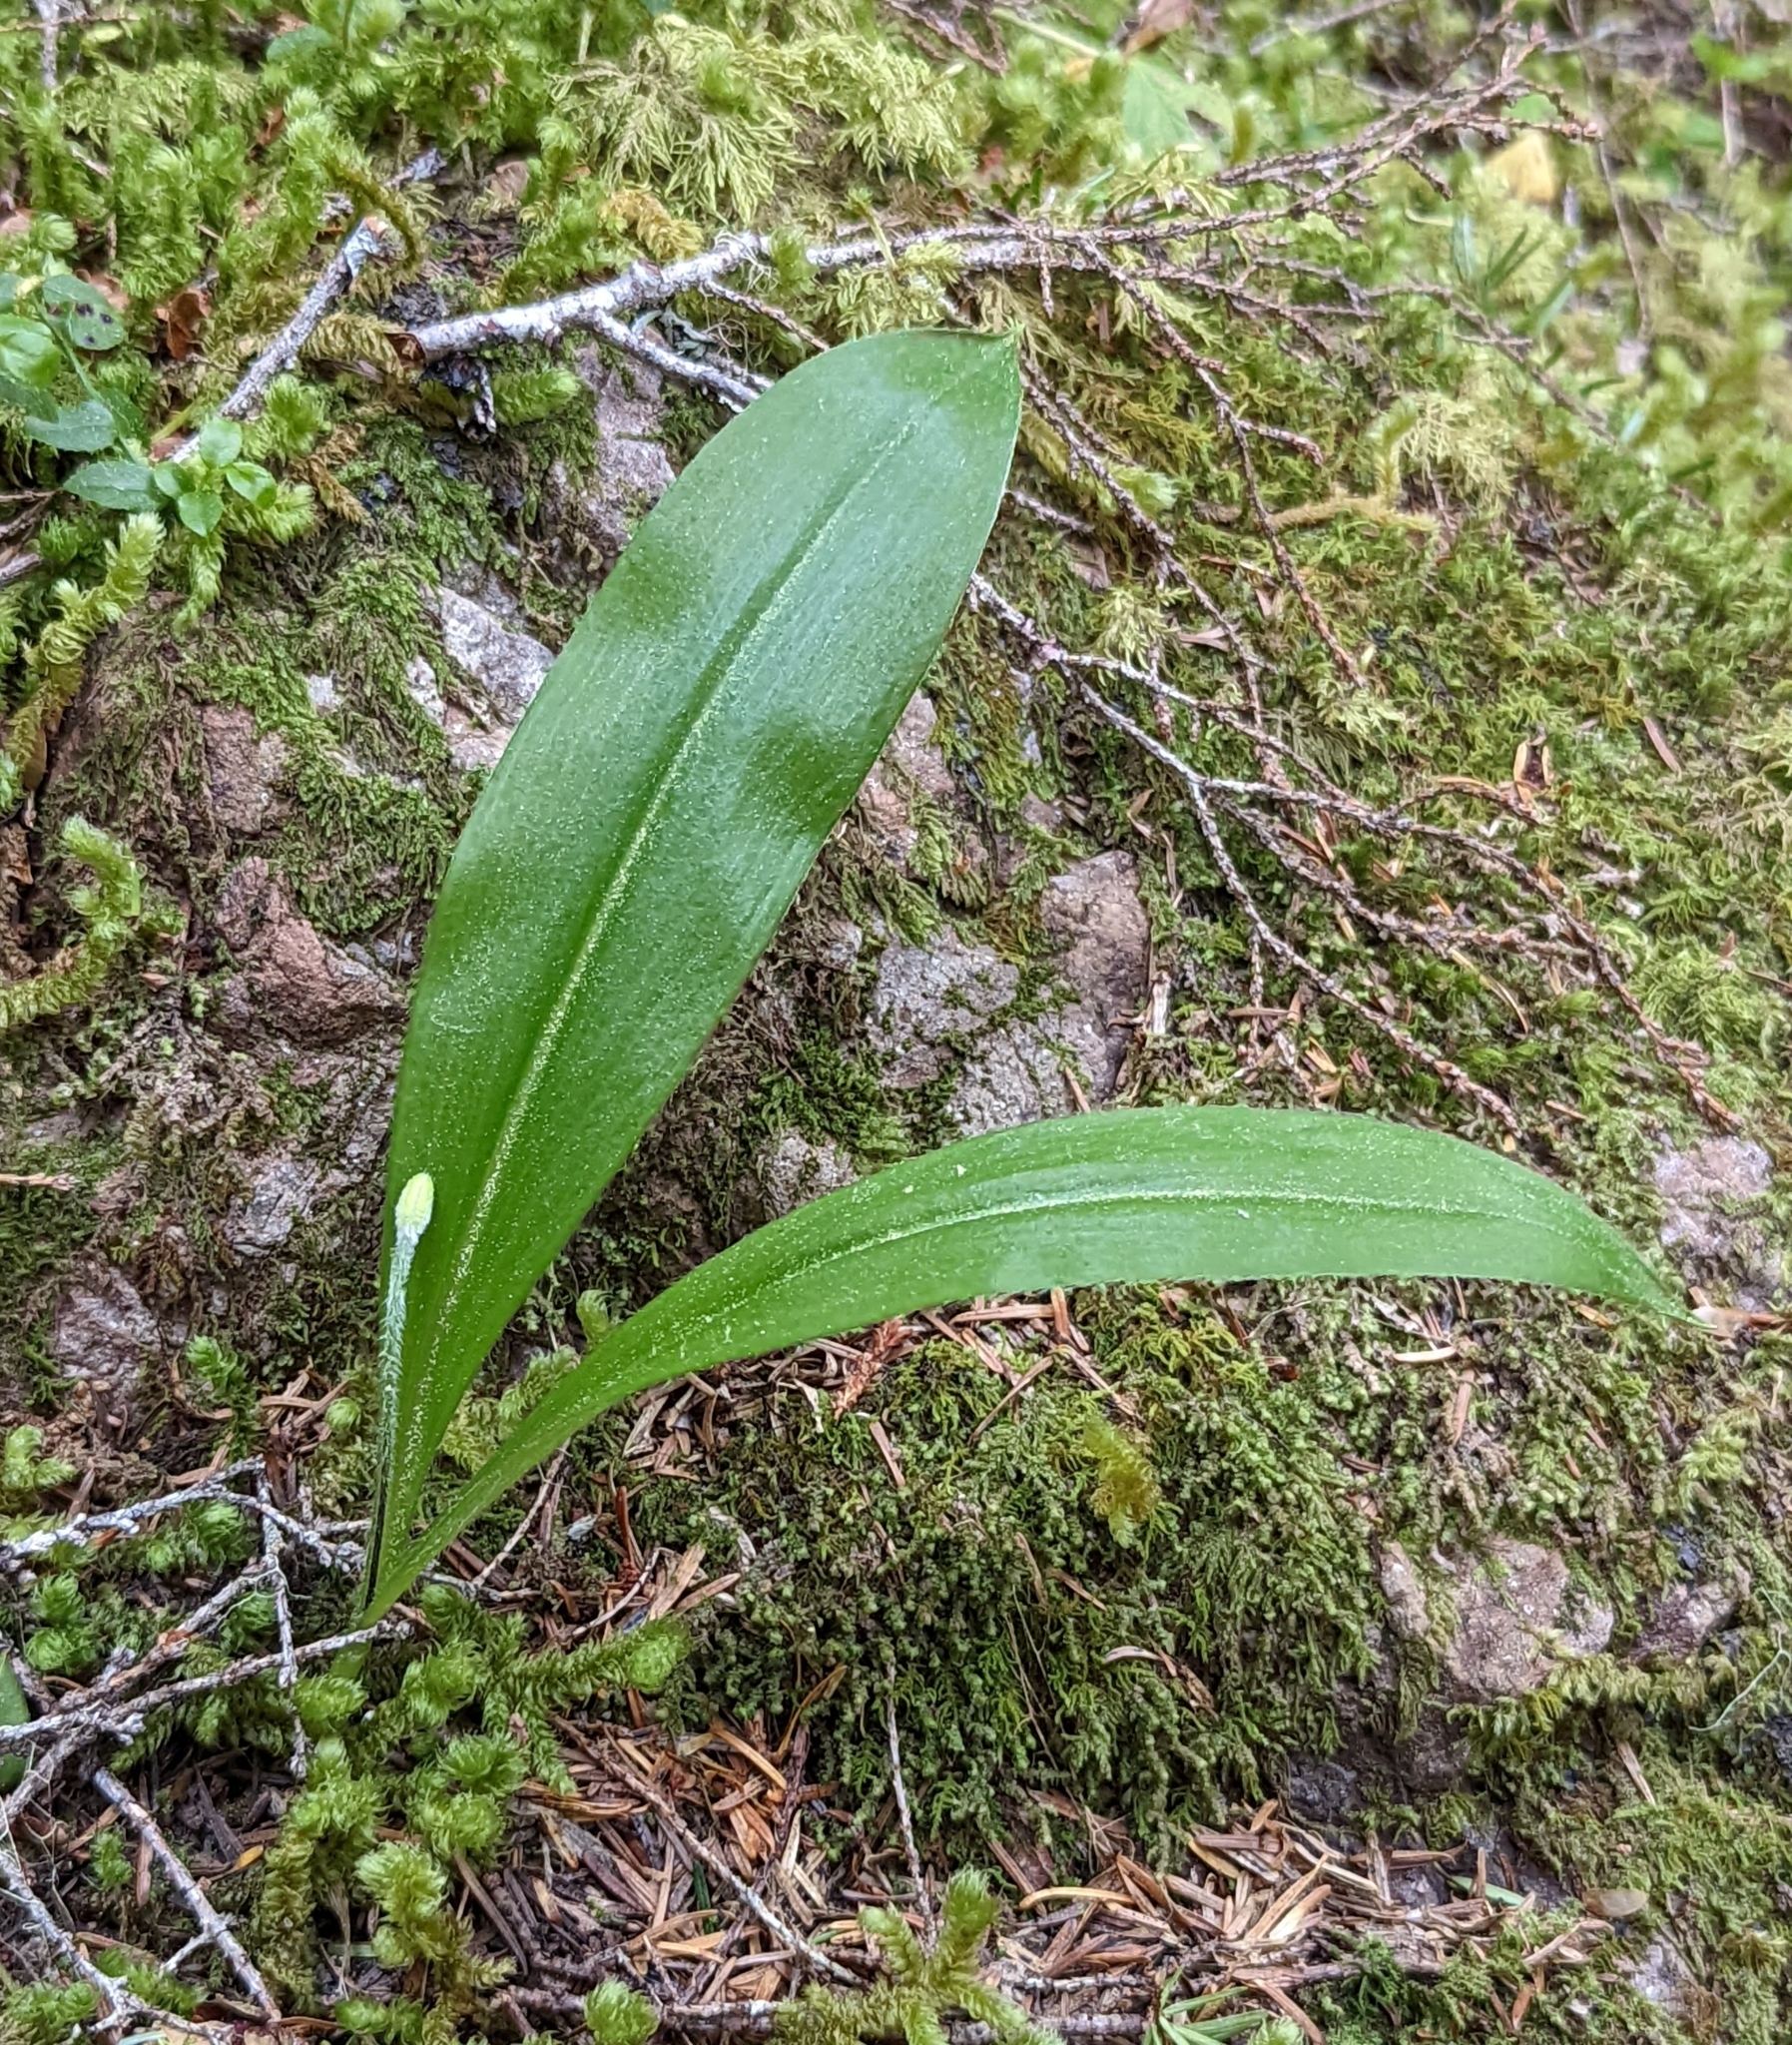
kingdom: Plantae
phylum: Tracheophyta
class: Liliopsida
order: Liliales
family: Liliaceae
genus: Clintonia
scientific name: Clintonia uniflora
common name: Queen's cup
